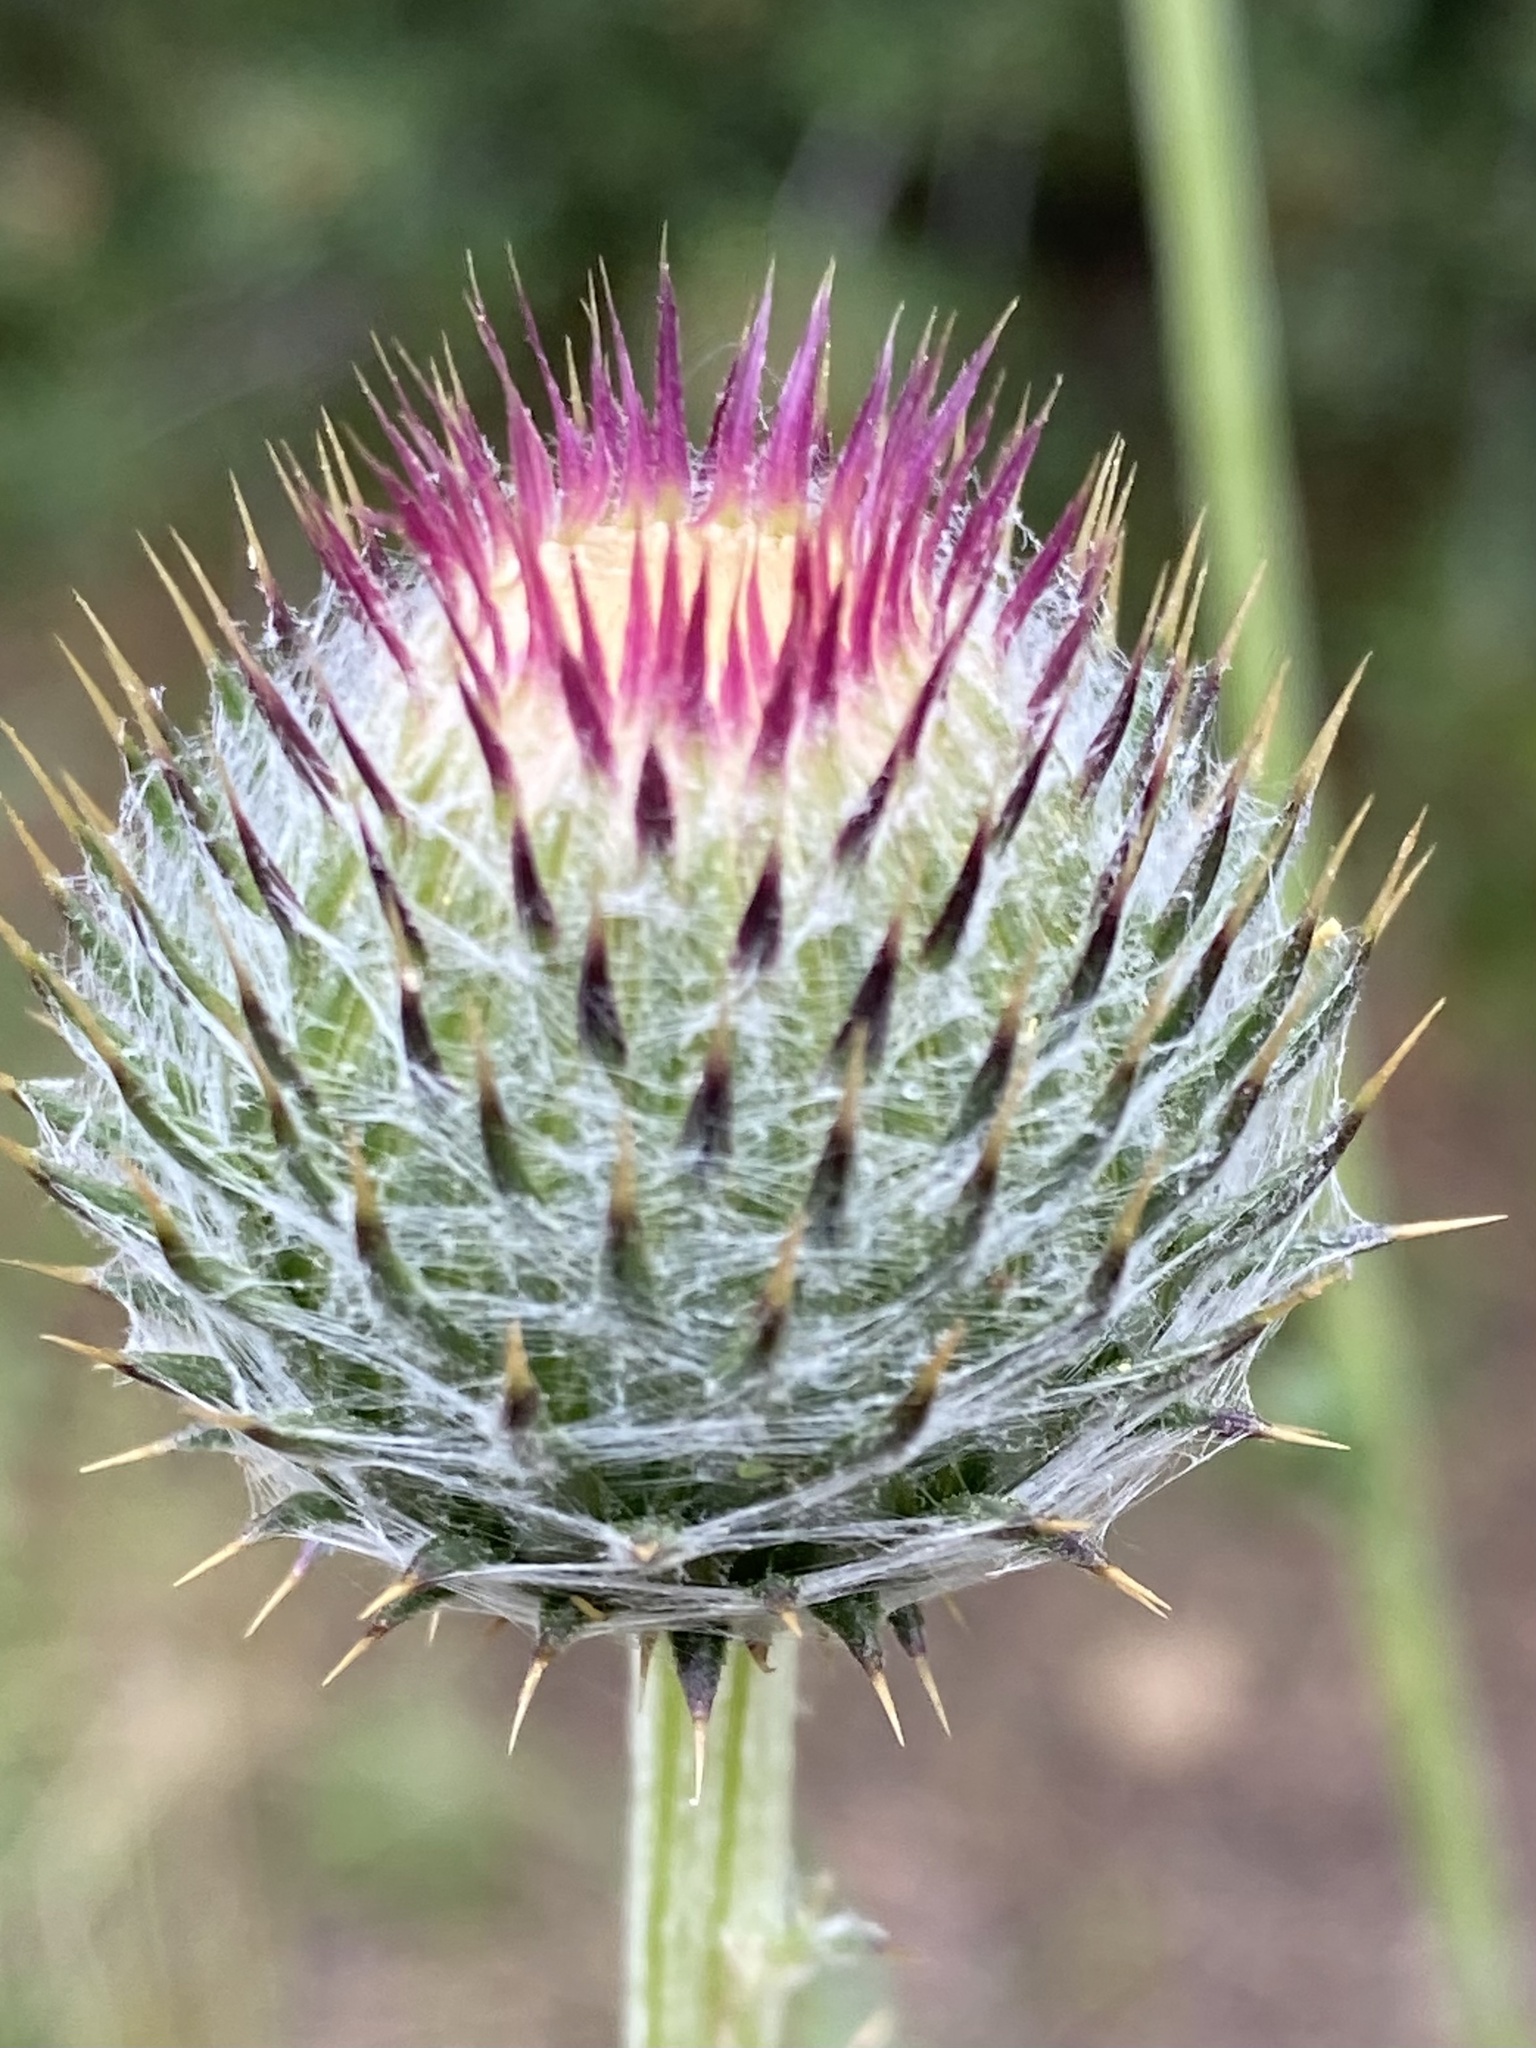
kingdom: Plantae
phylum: Tracheophyta
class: Magnoliopsida
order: Asterales
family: Asteraceae
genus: Cirsium
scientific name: Cirsium occidentale
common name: Western thistle
